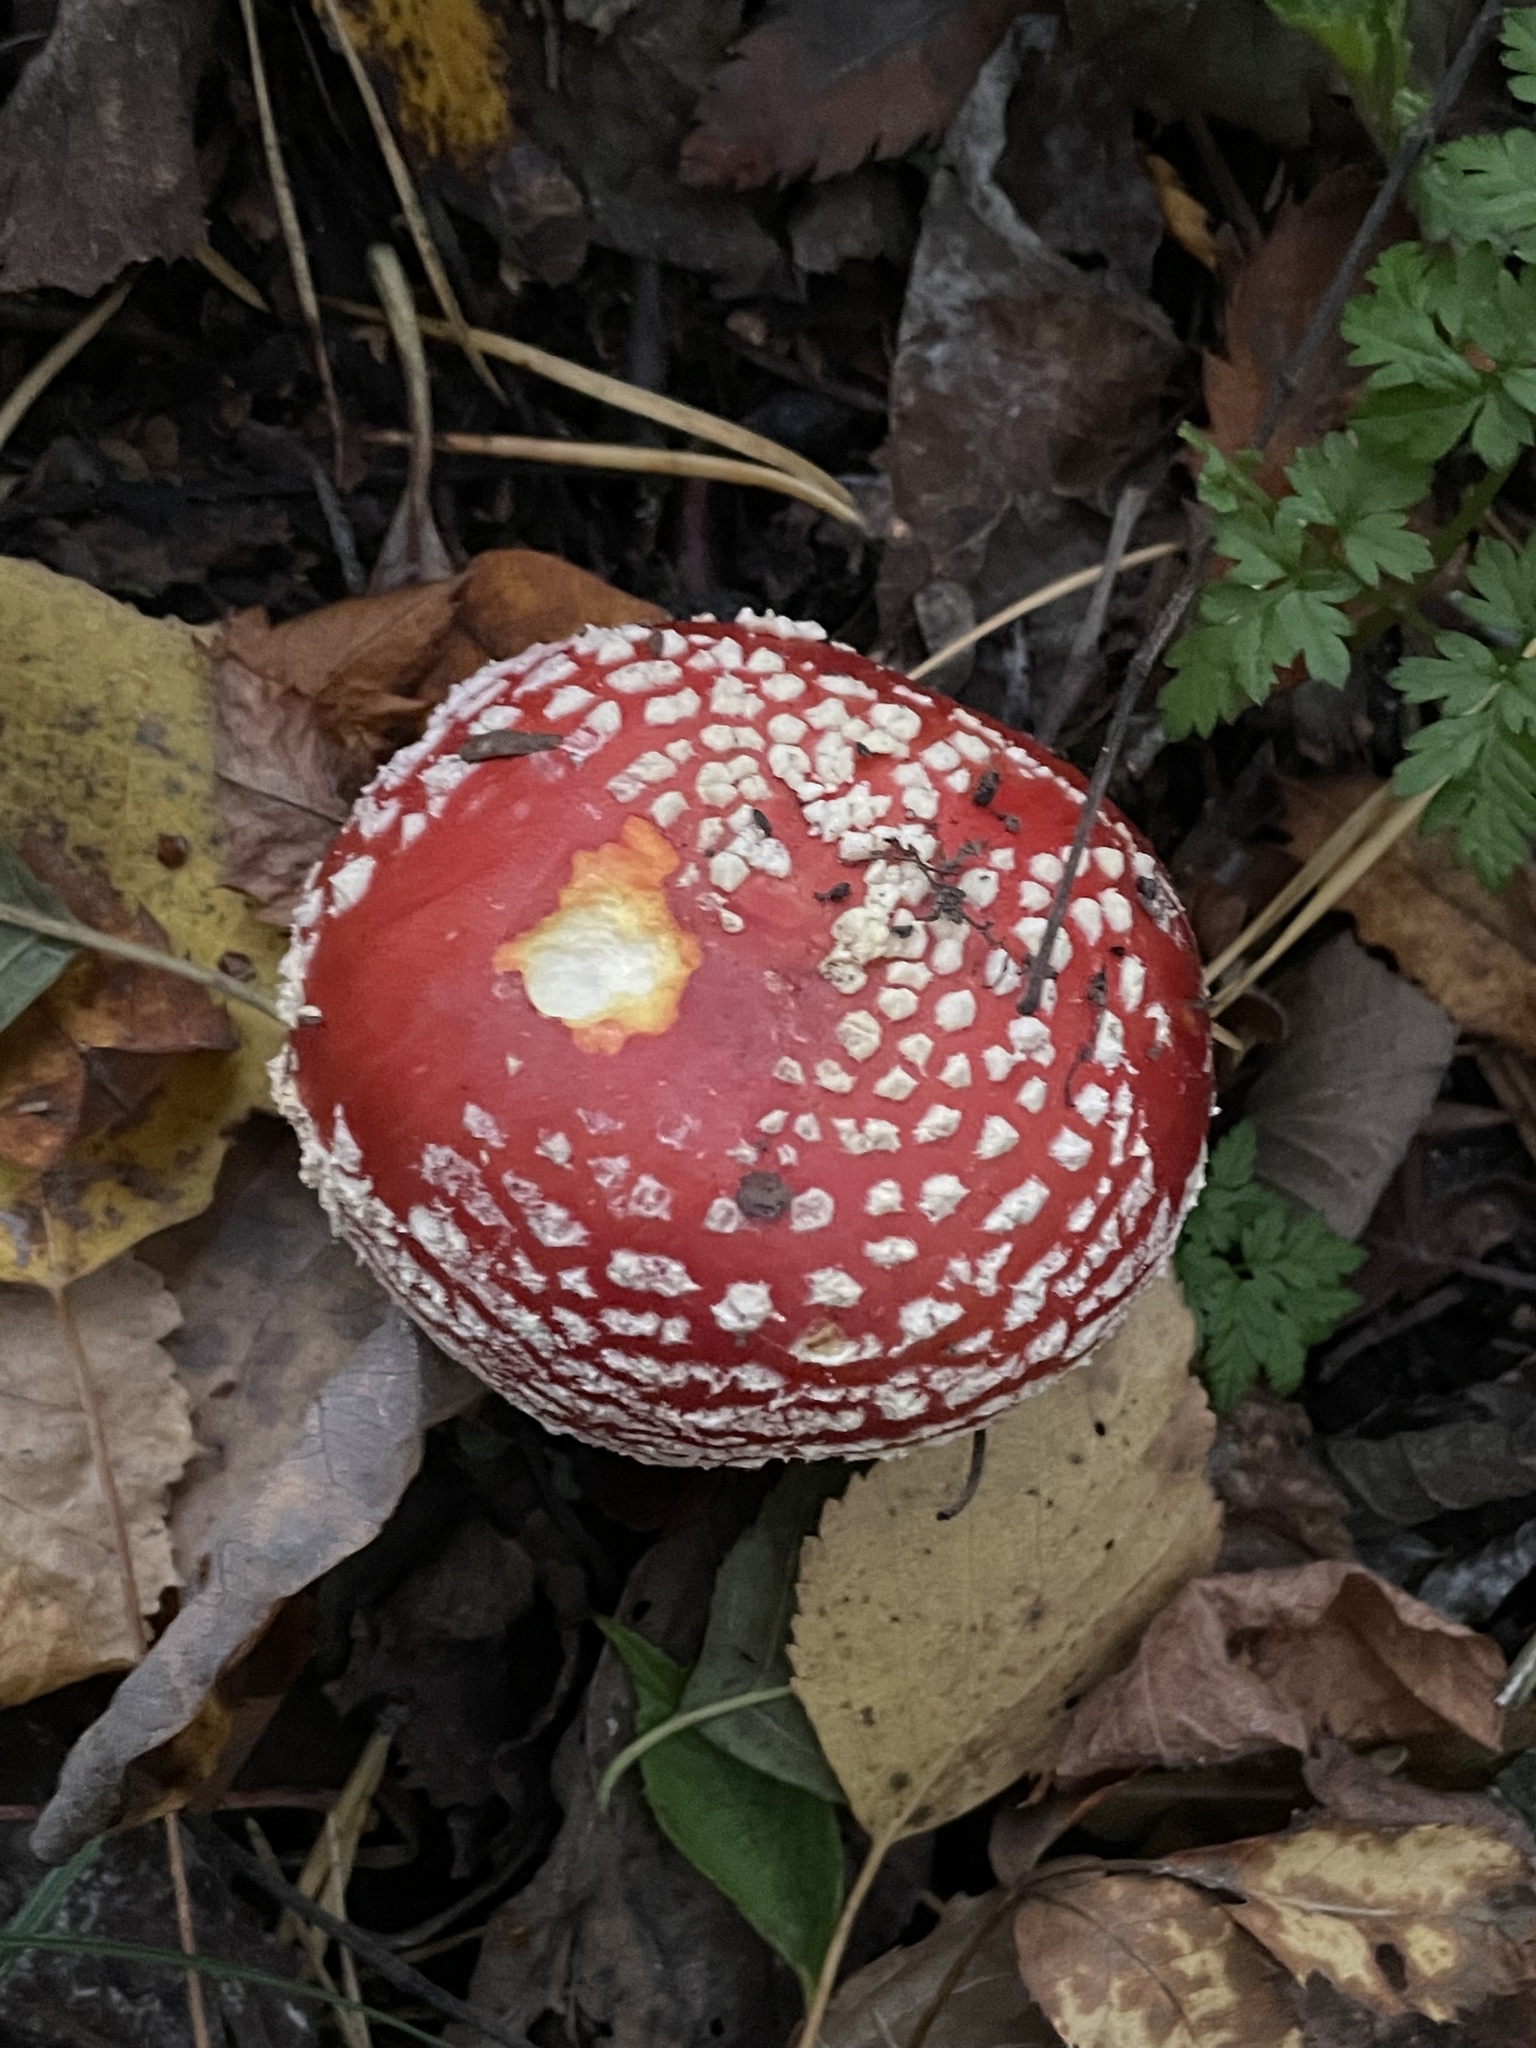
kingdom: Fungi
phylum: Basidiomycota
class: Agaricomycetes
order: Agaricales
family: Amanitaceae
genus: Amanita
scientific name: Amanita muscaria
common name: Fly agaric
